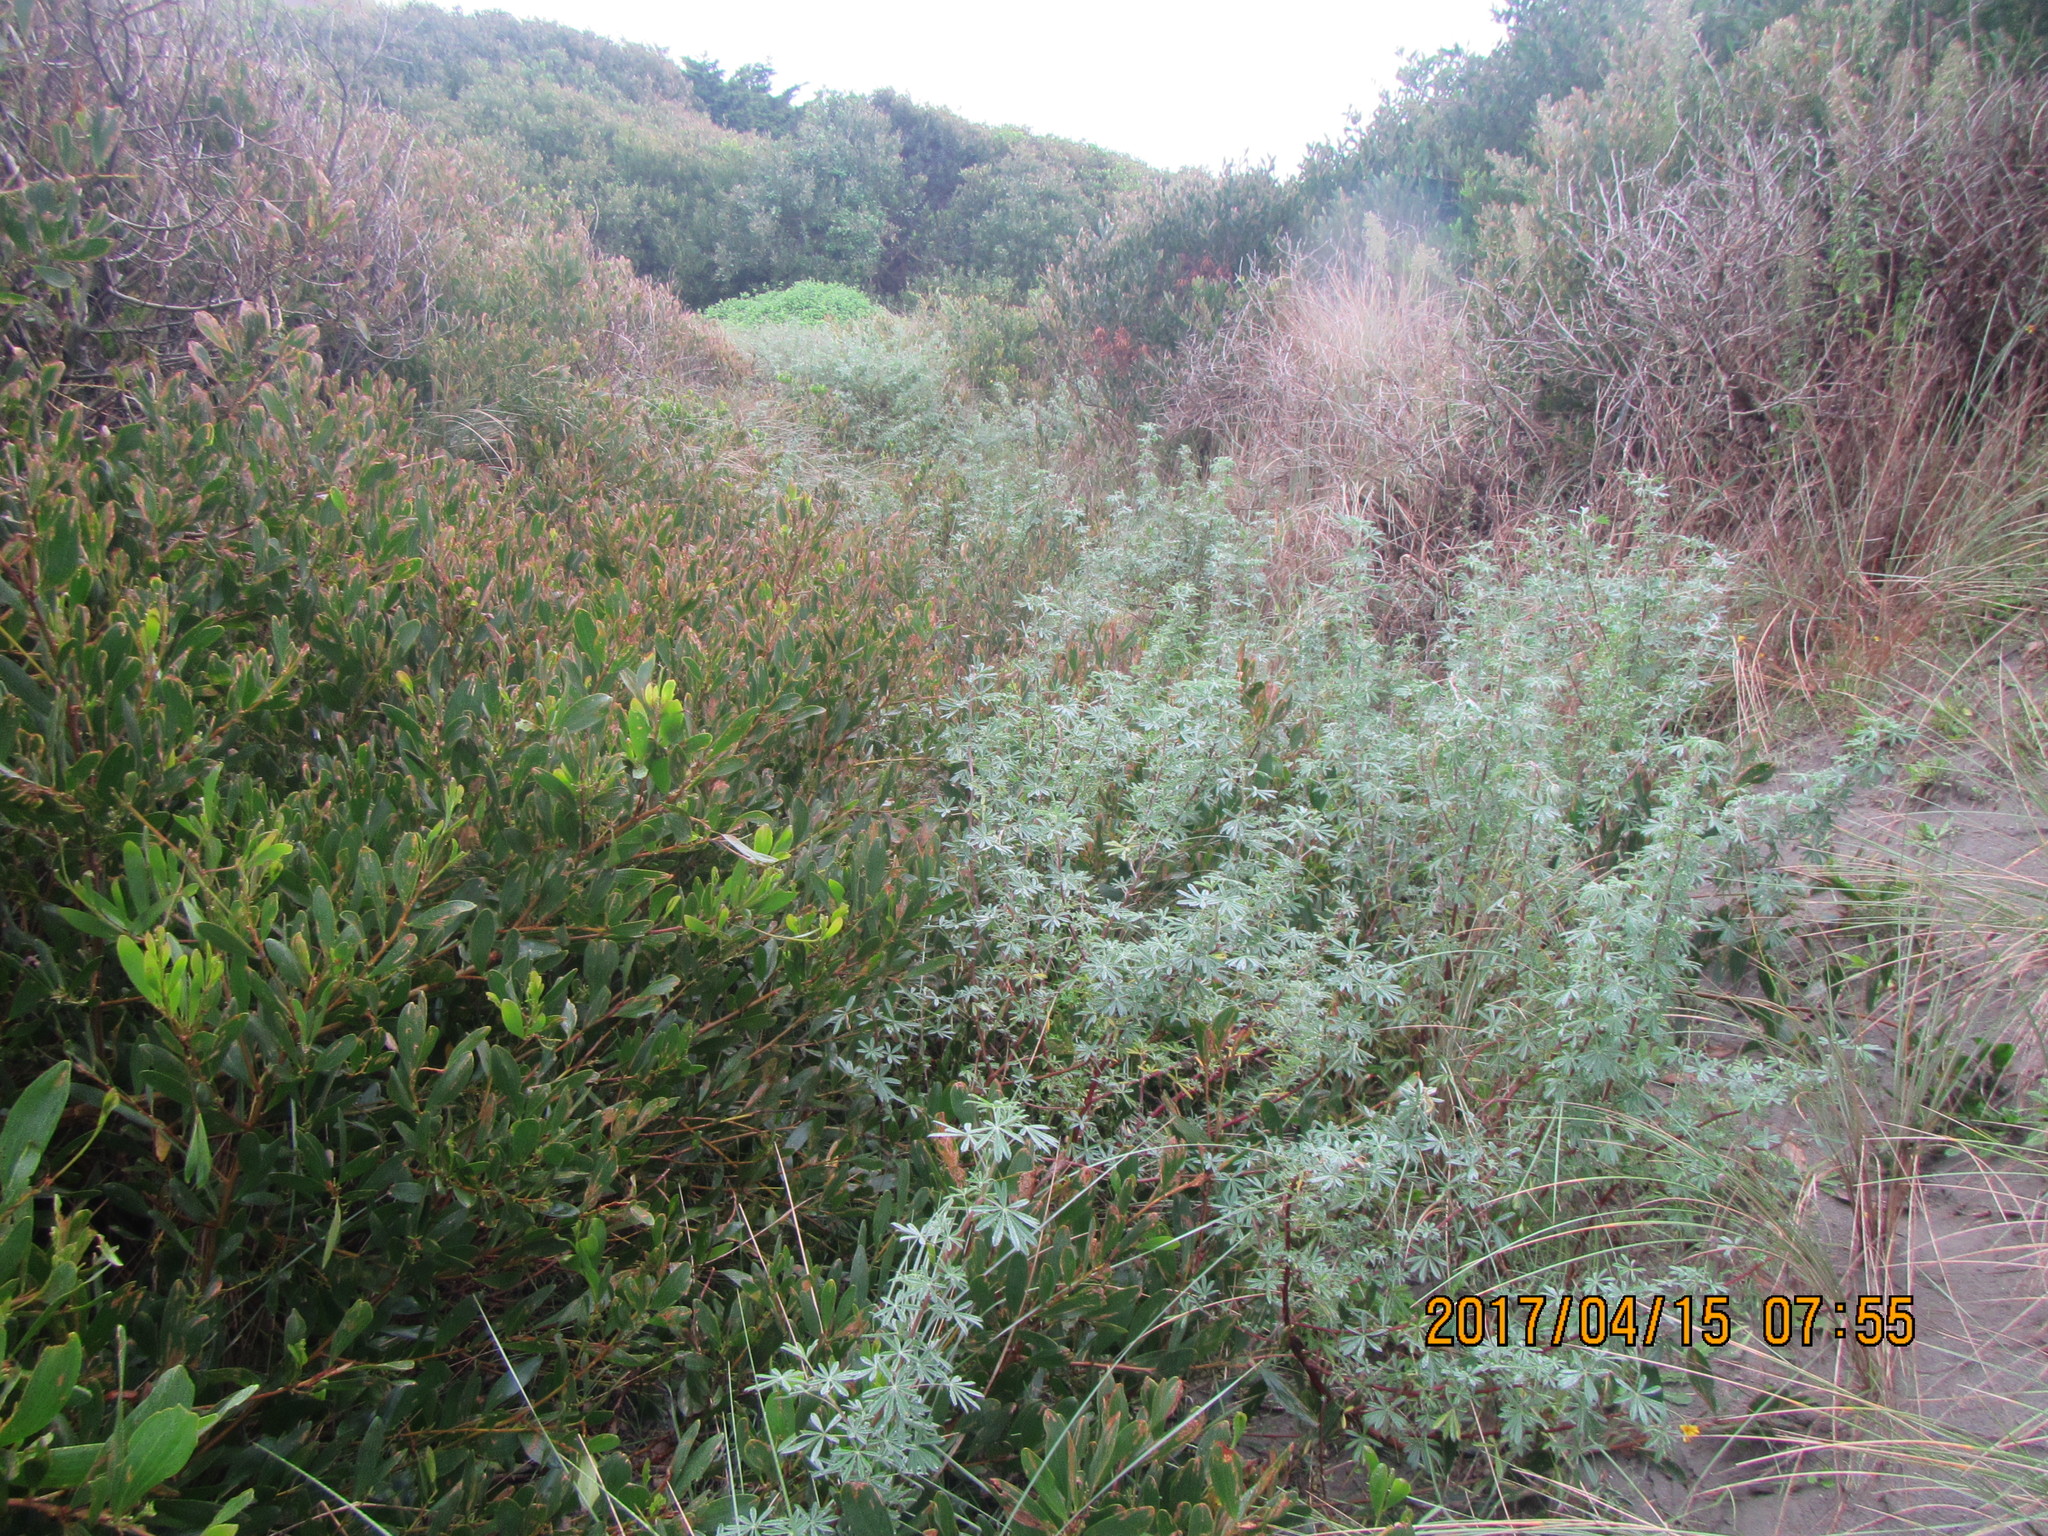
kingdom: Plantae
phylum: Tracheophyta
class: Magnoliopsida
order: Fabales
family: Fabaceae
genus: Lupinus
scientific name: Lupinus arboreus
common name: Yellow bush lupine
